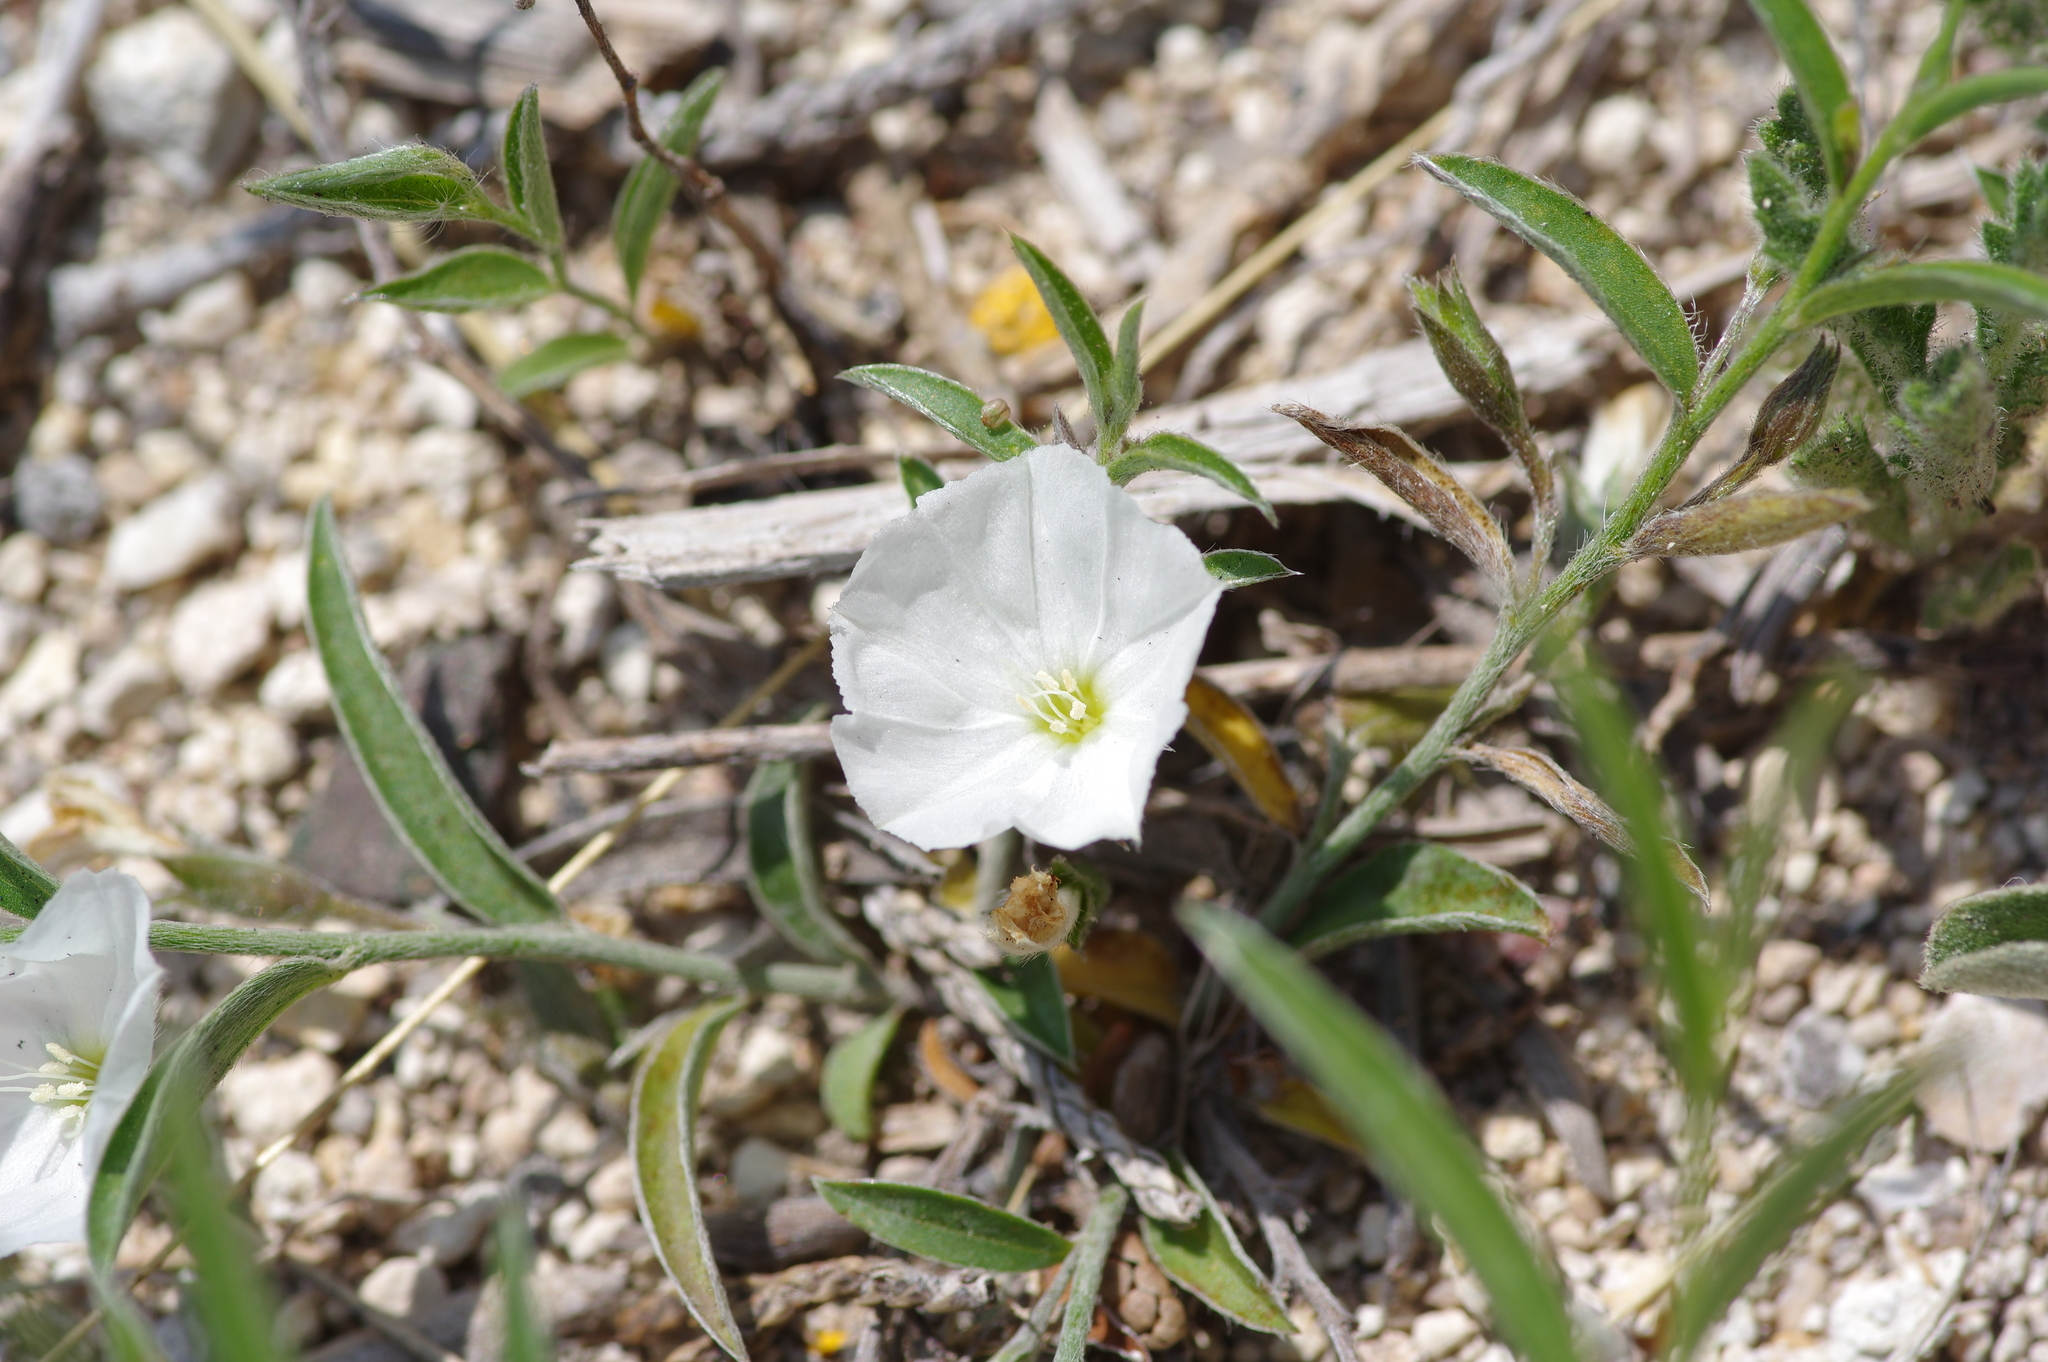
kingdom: Plantae
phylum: Tracheophyta
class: Magnoliopsida
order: Solanales
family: Convolvulaceae
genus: Evolvulus
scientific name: Evolvulus sericeus
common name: Blue dots
